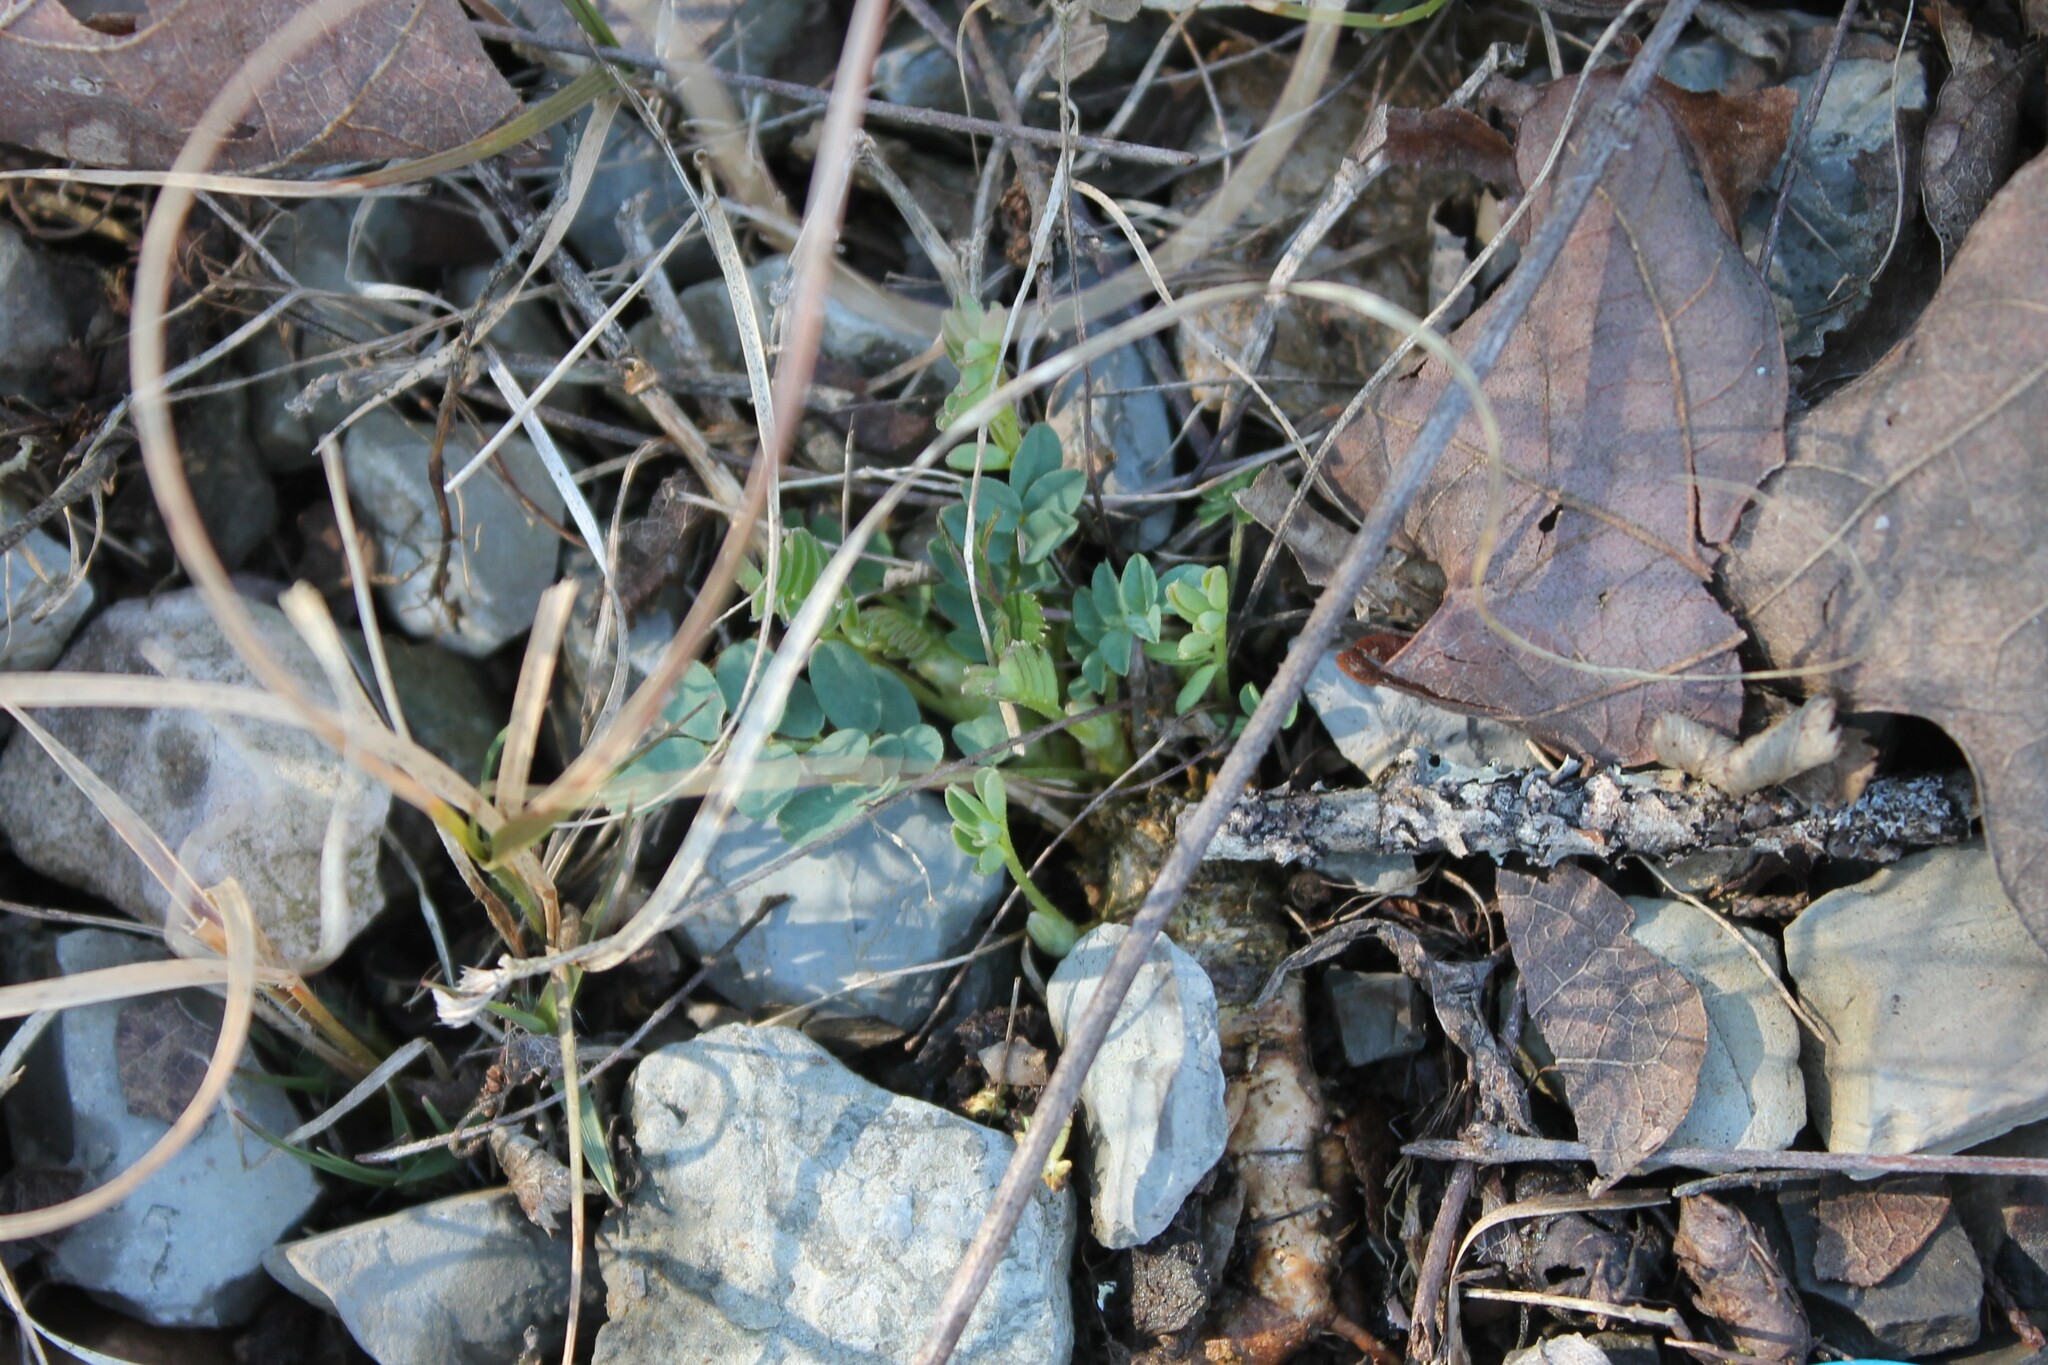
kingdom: Plantae
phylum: Tracheophyta
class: Magnoliopsida
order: Fabales
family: Fabaceae
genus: Astragalus
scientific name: Astragalus bibullatus
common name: Pyne's ground-plum
